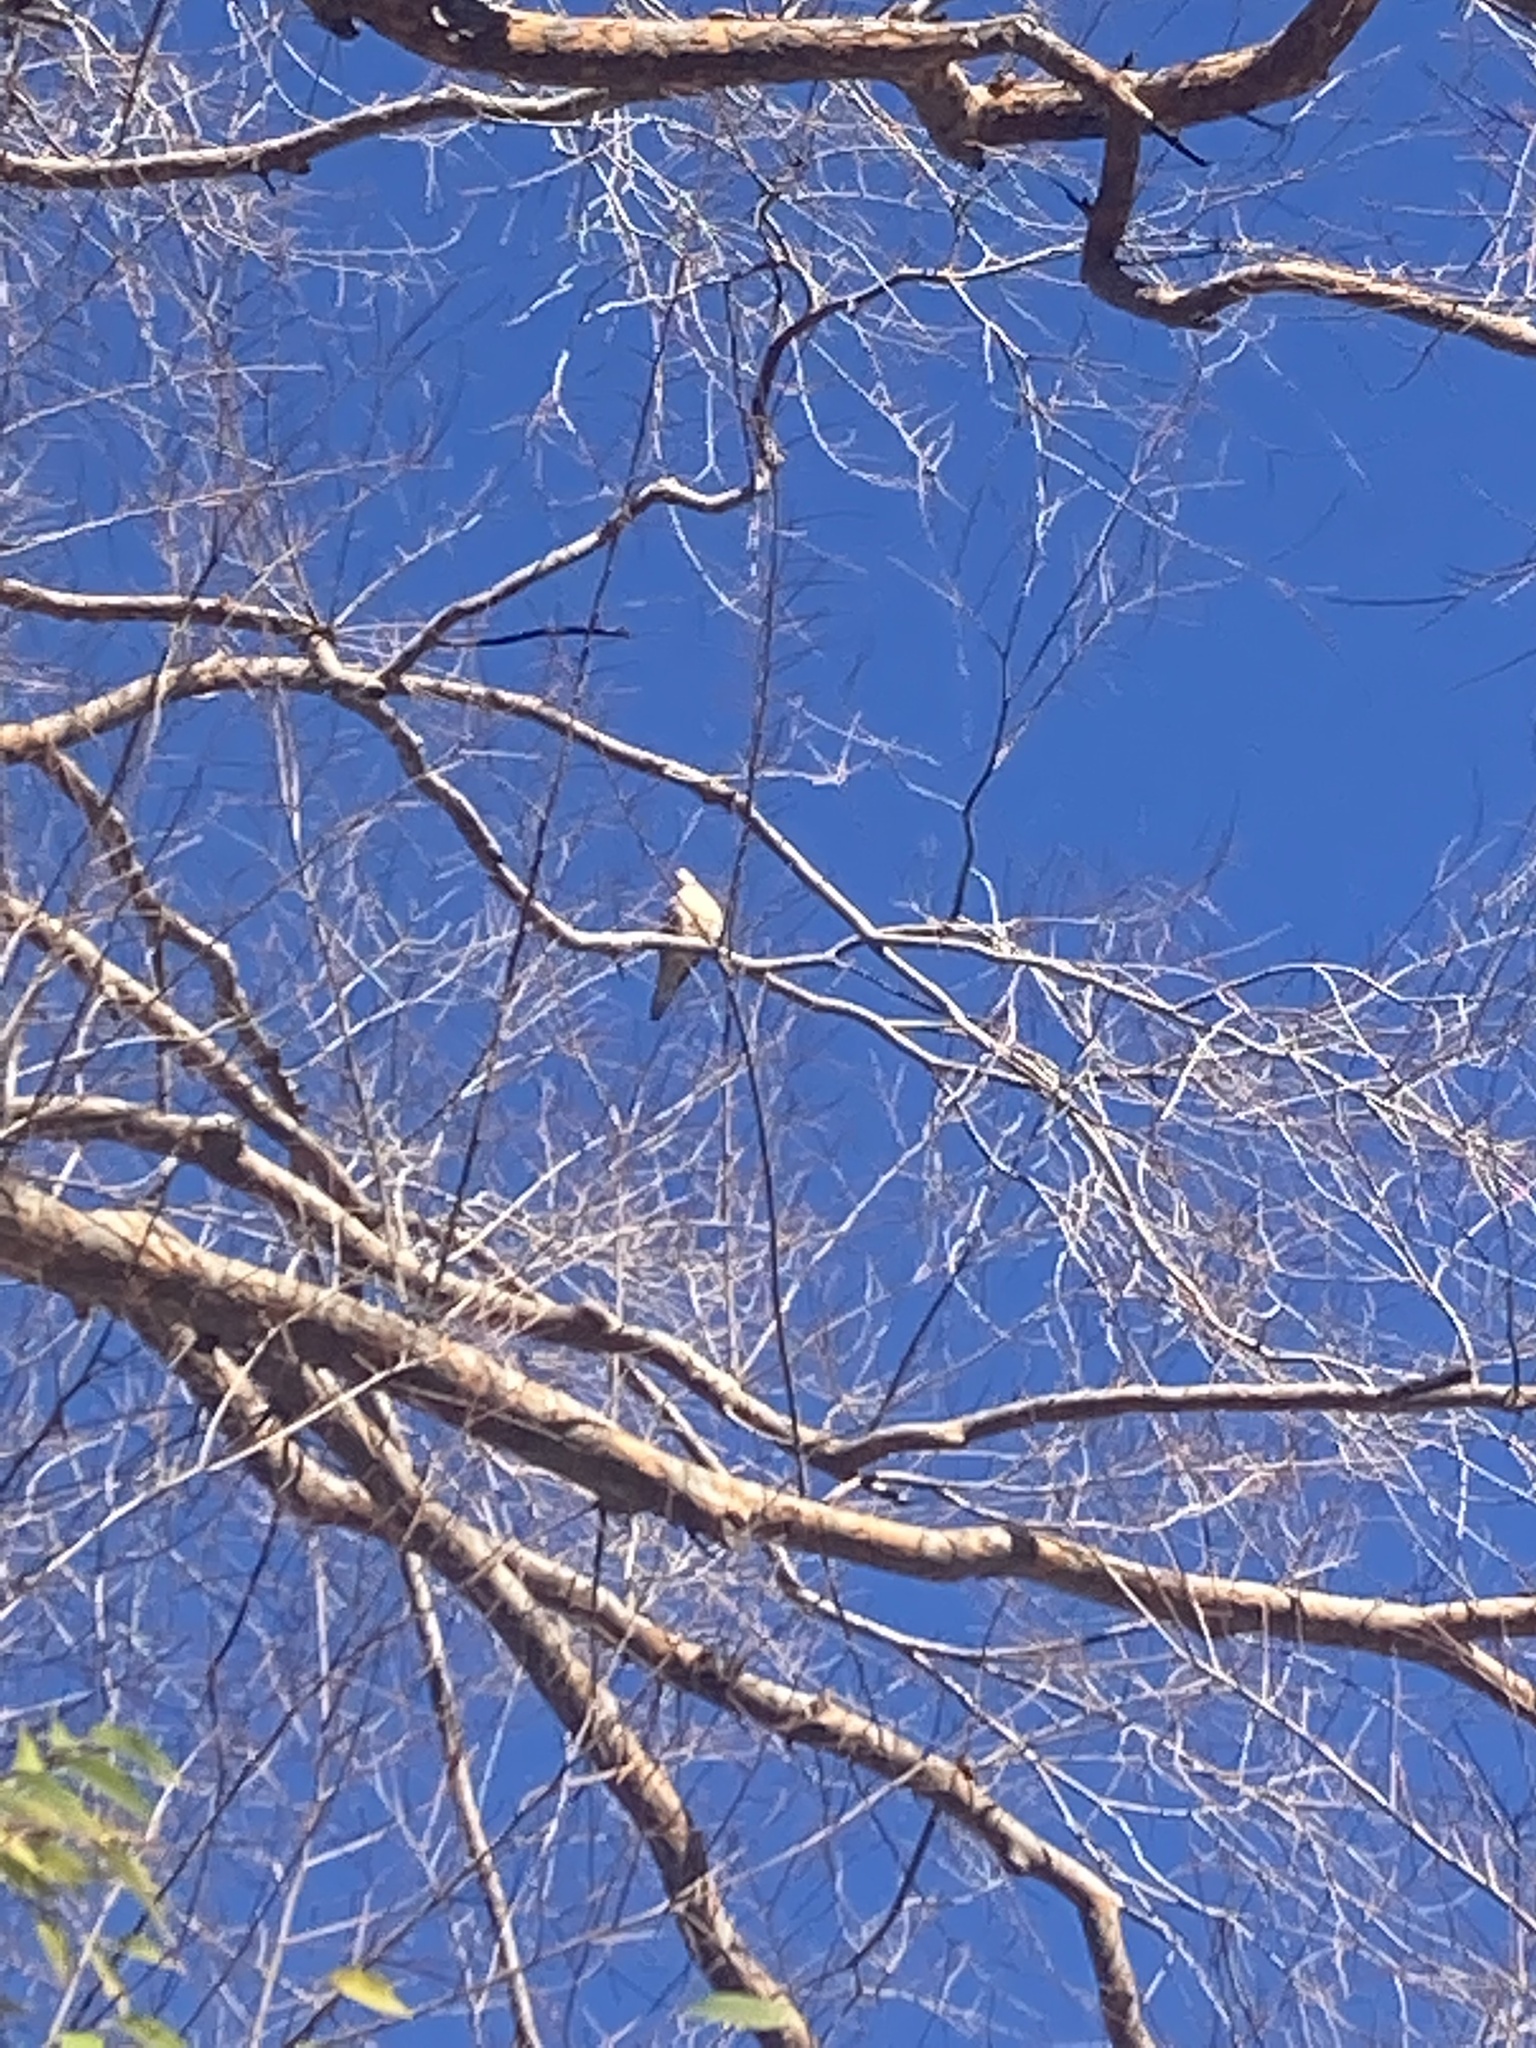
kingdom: Animalia
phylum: Chordata
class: Aves
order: Columbiformes
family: Columbidae
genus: Zenaida
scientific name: Zenaida macroura
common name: Mourning dove
